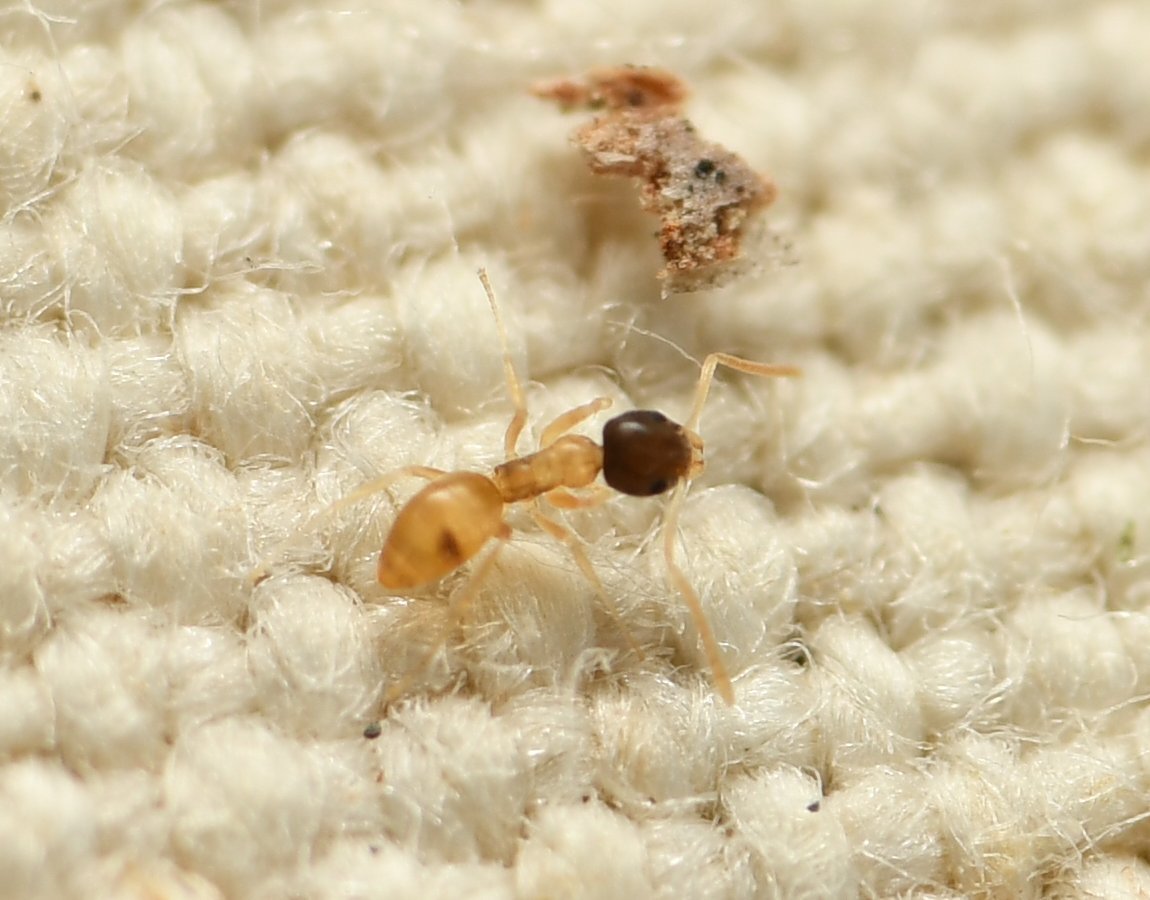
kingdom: Animalia
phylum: Arthropoda
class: Insecta
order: Hymenoptera
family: Formicidae
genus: Tapinoma
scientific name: Tapinoma melanocephalum
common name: Ghost ant
